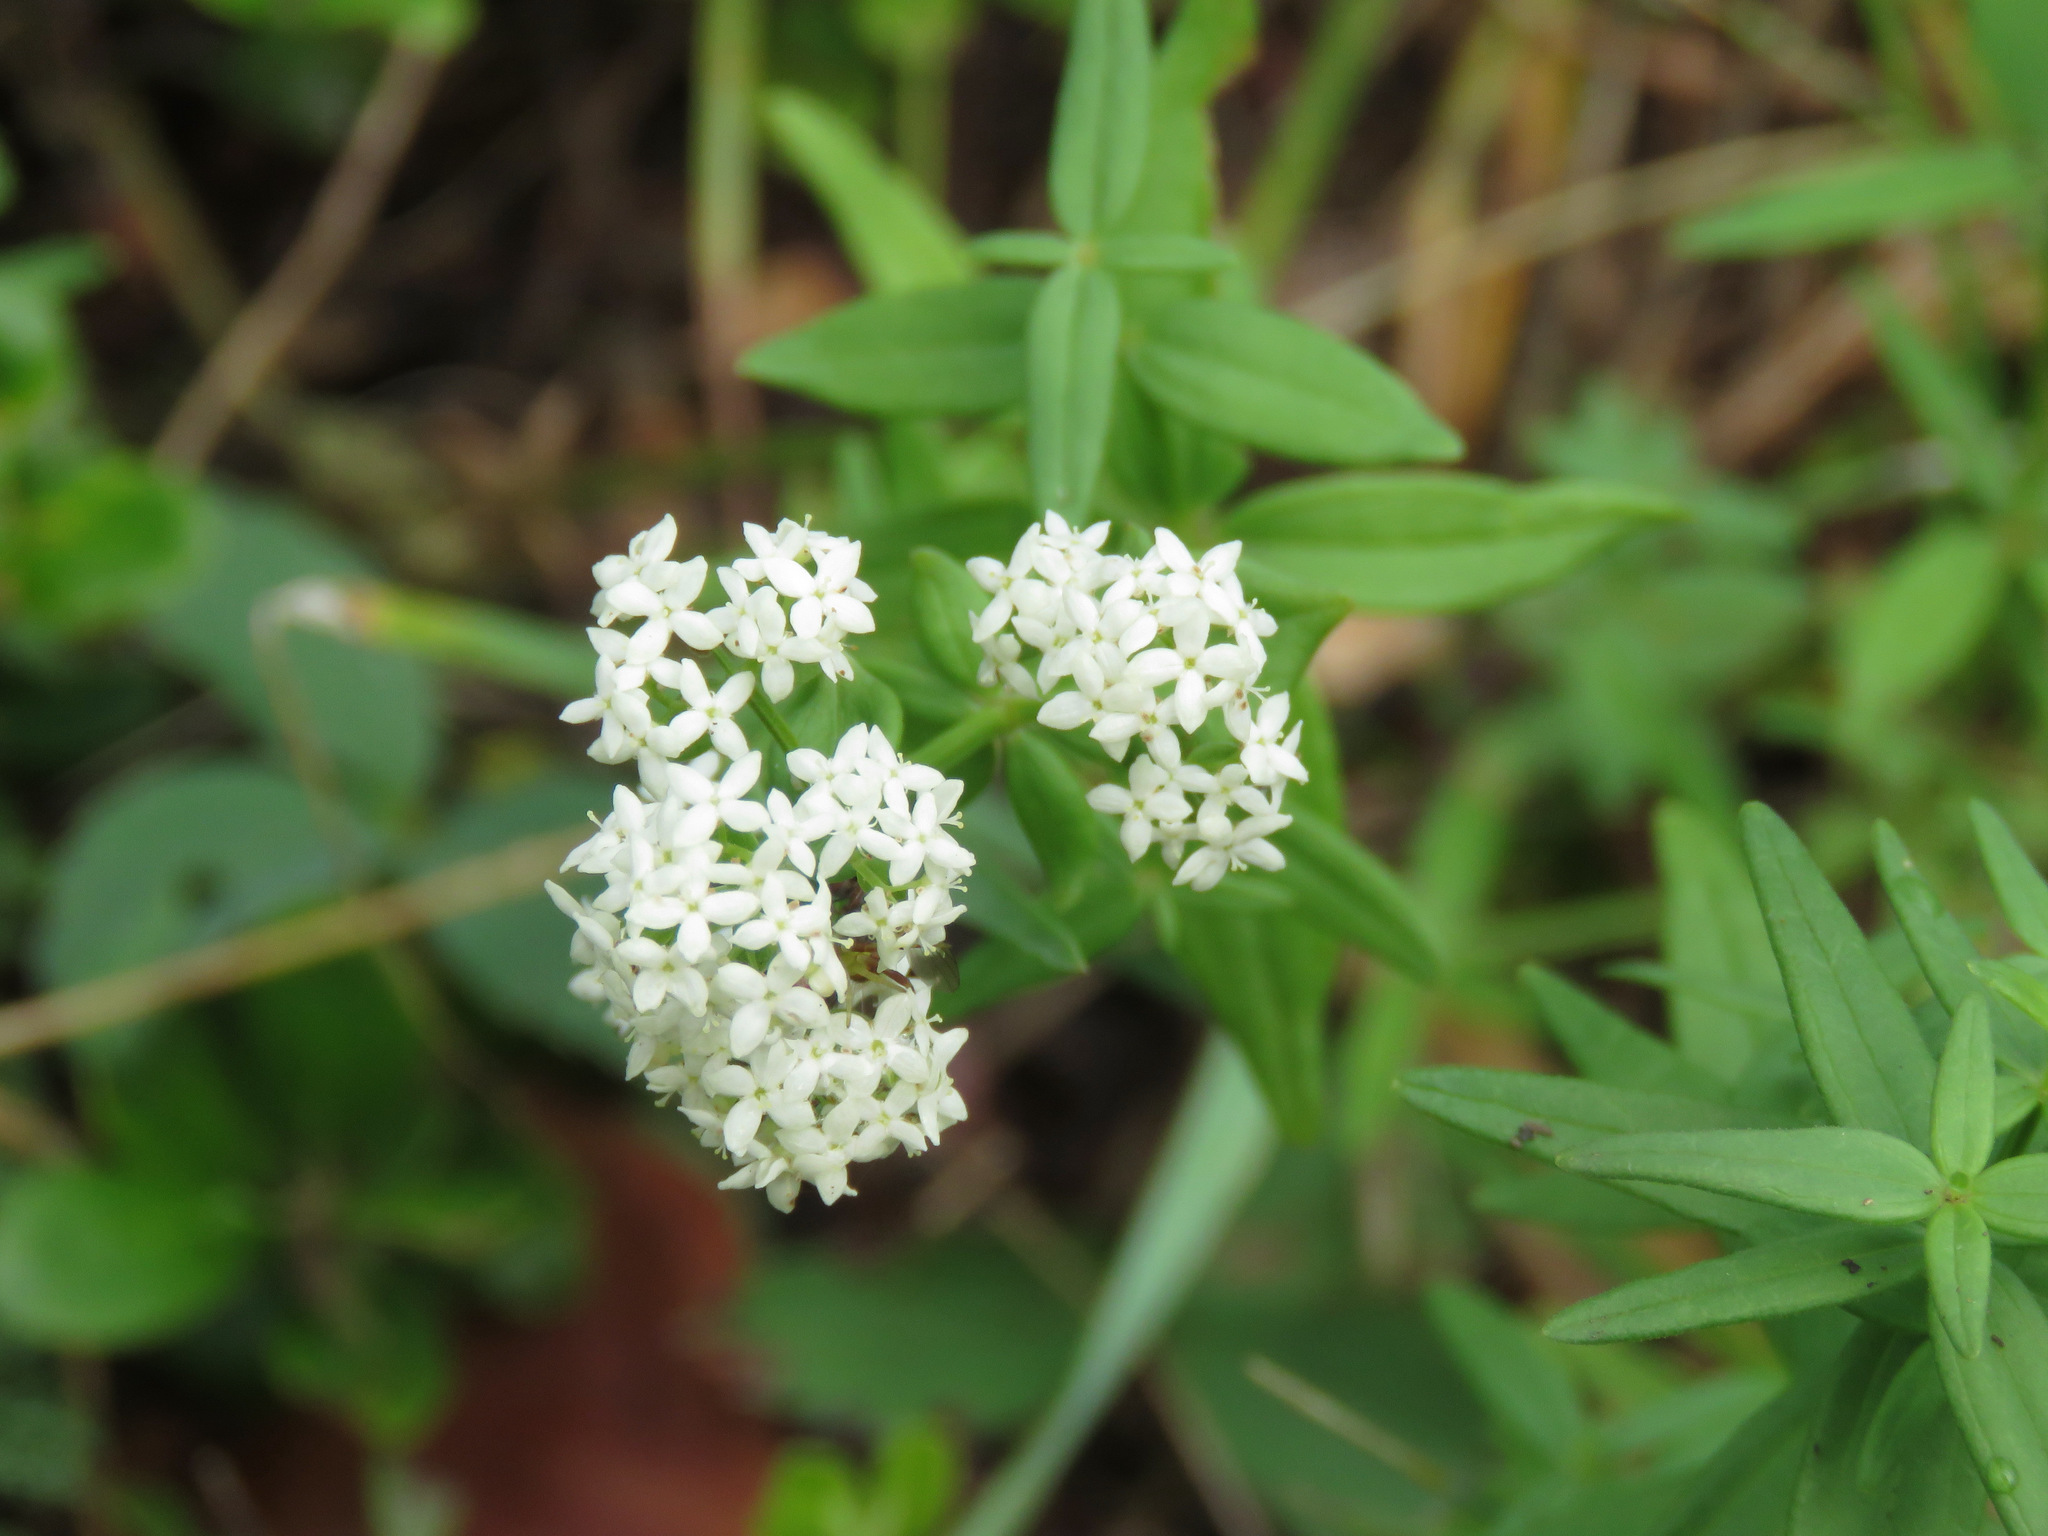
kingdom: Plantae
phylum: Tracheophyta
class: Magnoliopsida
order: Gentianales
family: Rubiaceae
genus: Galium
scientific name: Galium boreale
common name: Northern bedstraw
